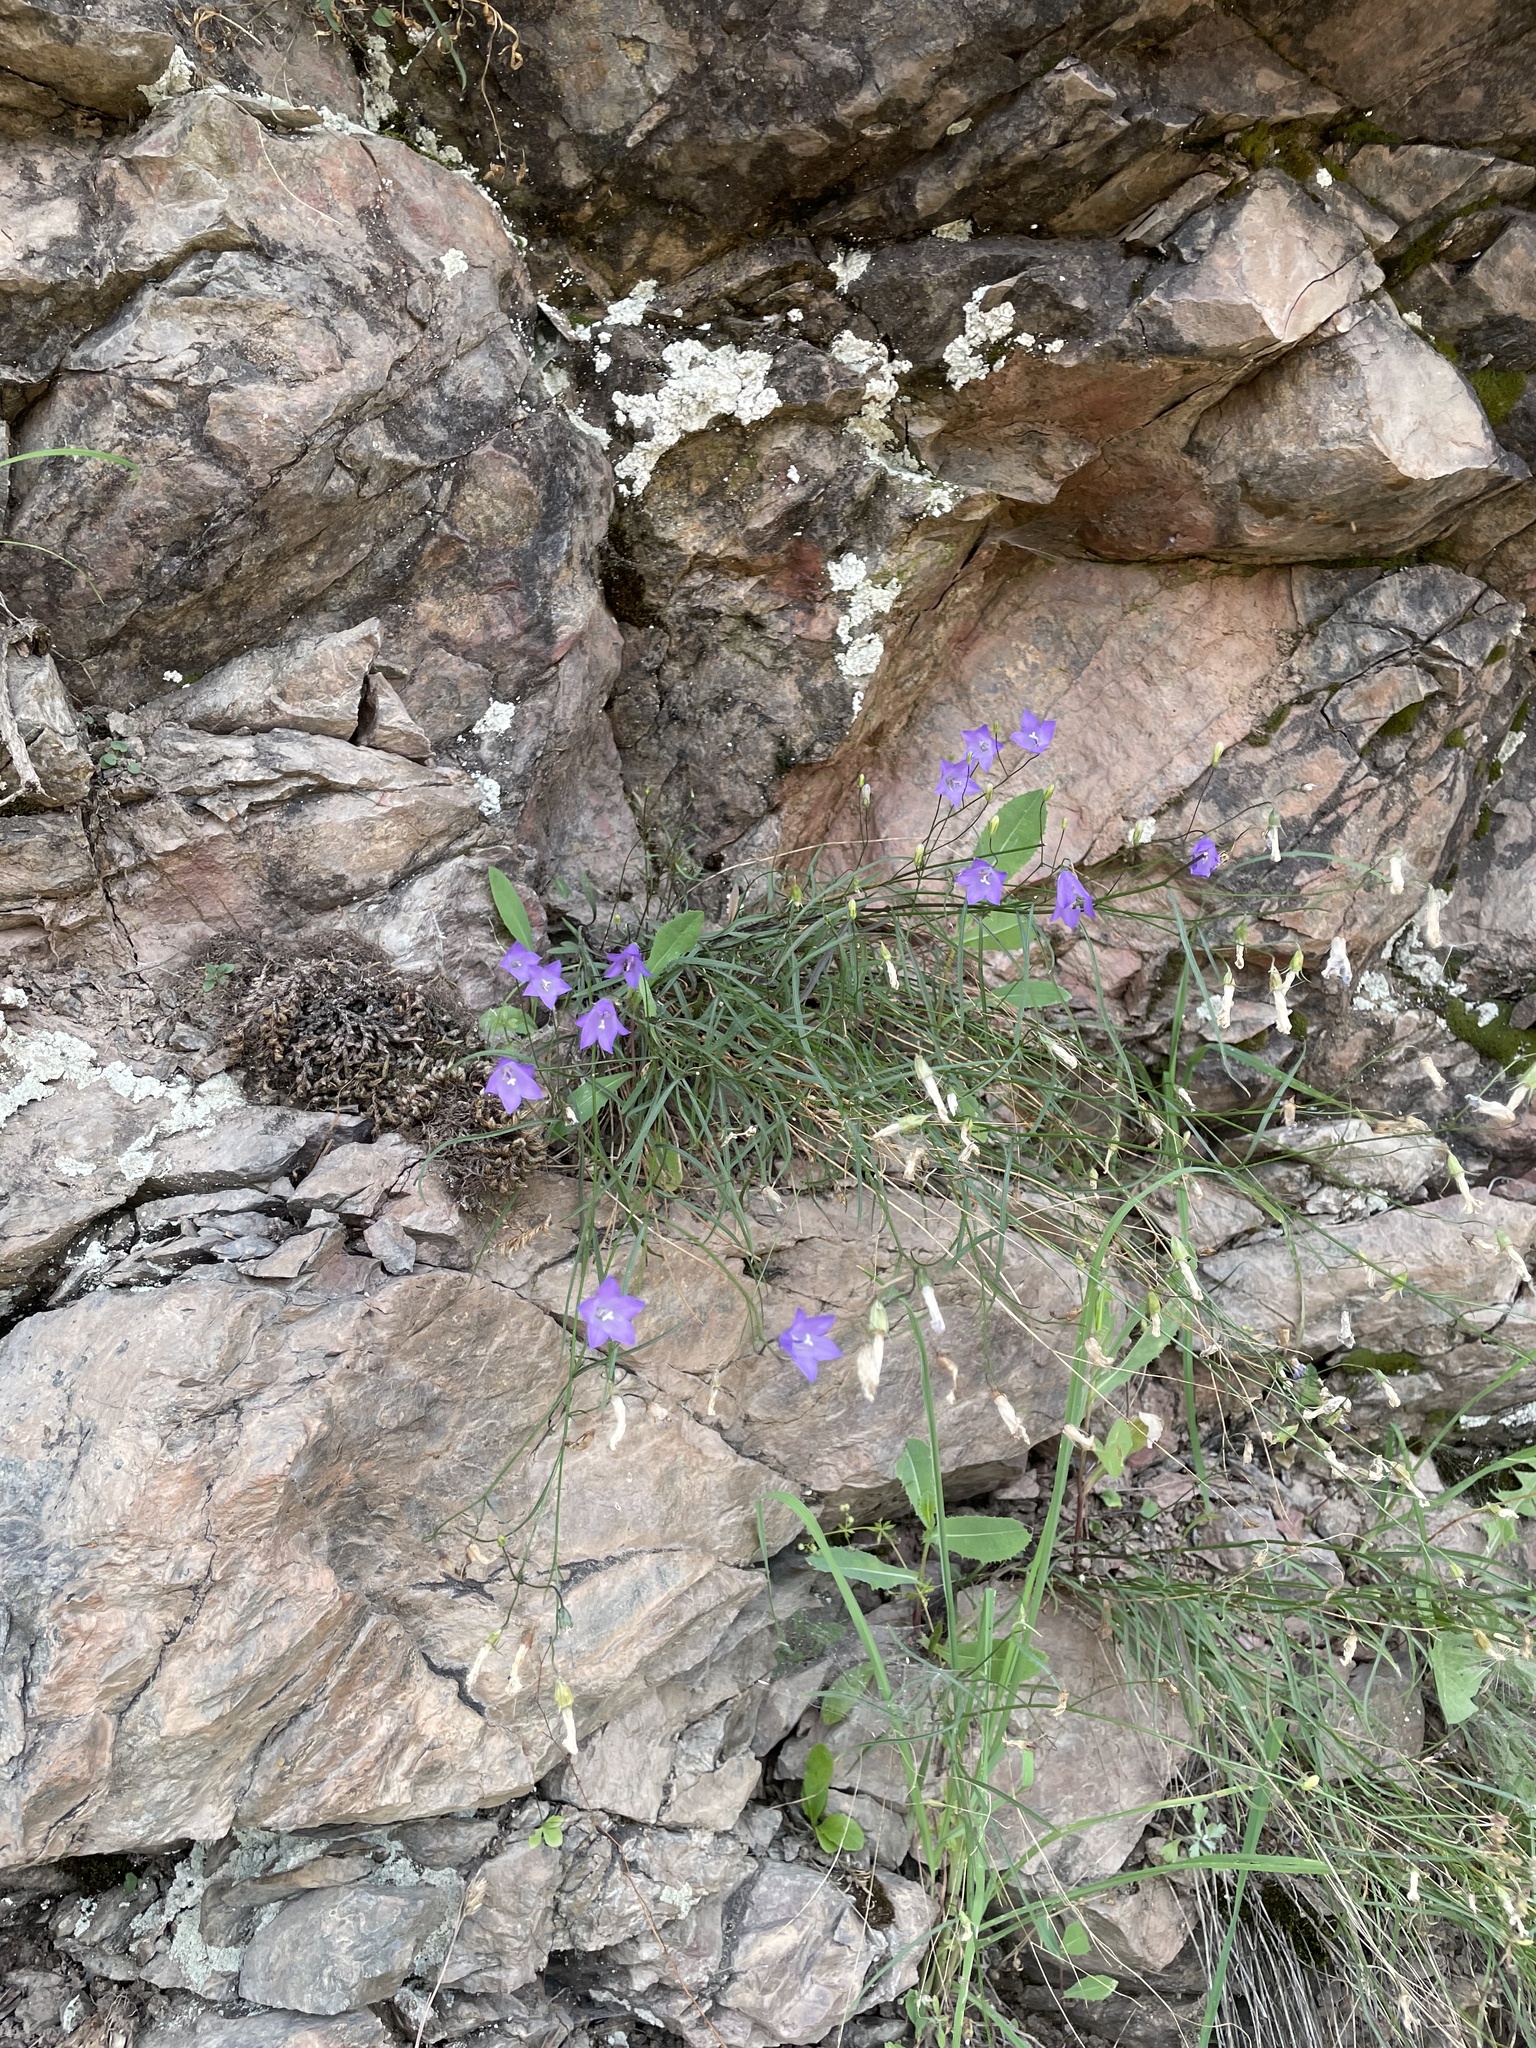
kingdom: Plantae
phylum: Tracheophyta
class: Magnoliopsida
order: Asterales
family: Campanulaceae
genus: Campanula
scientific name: Campanula petiolata
